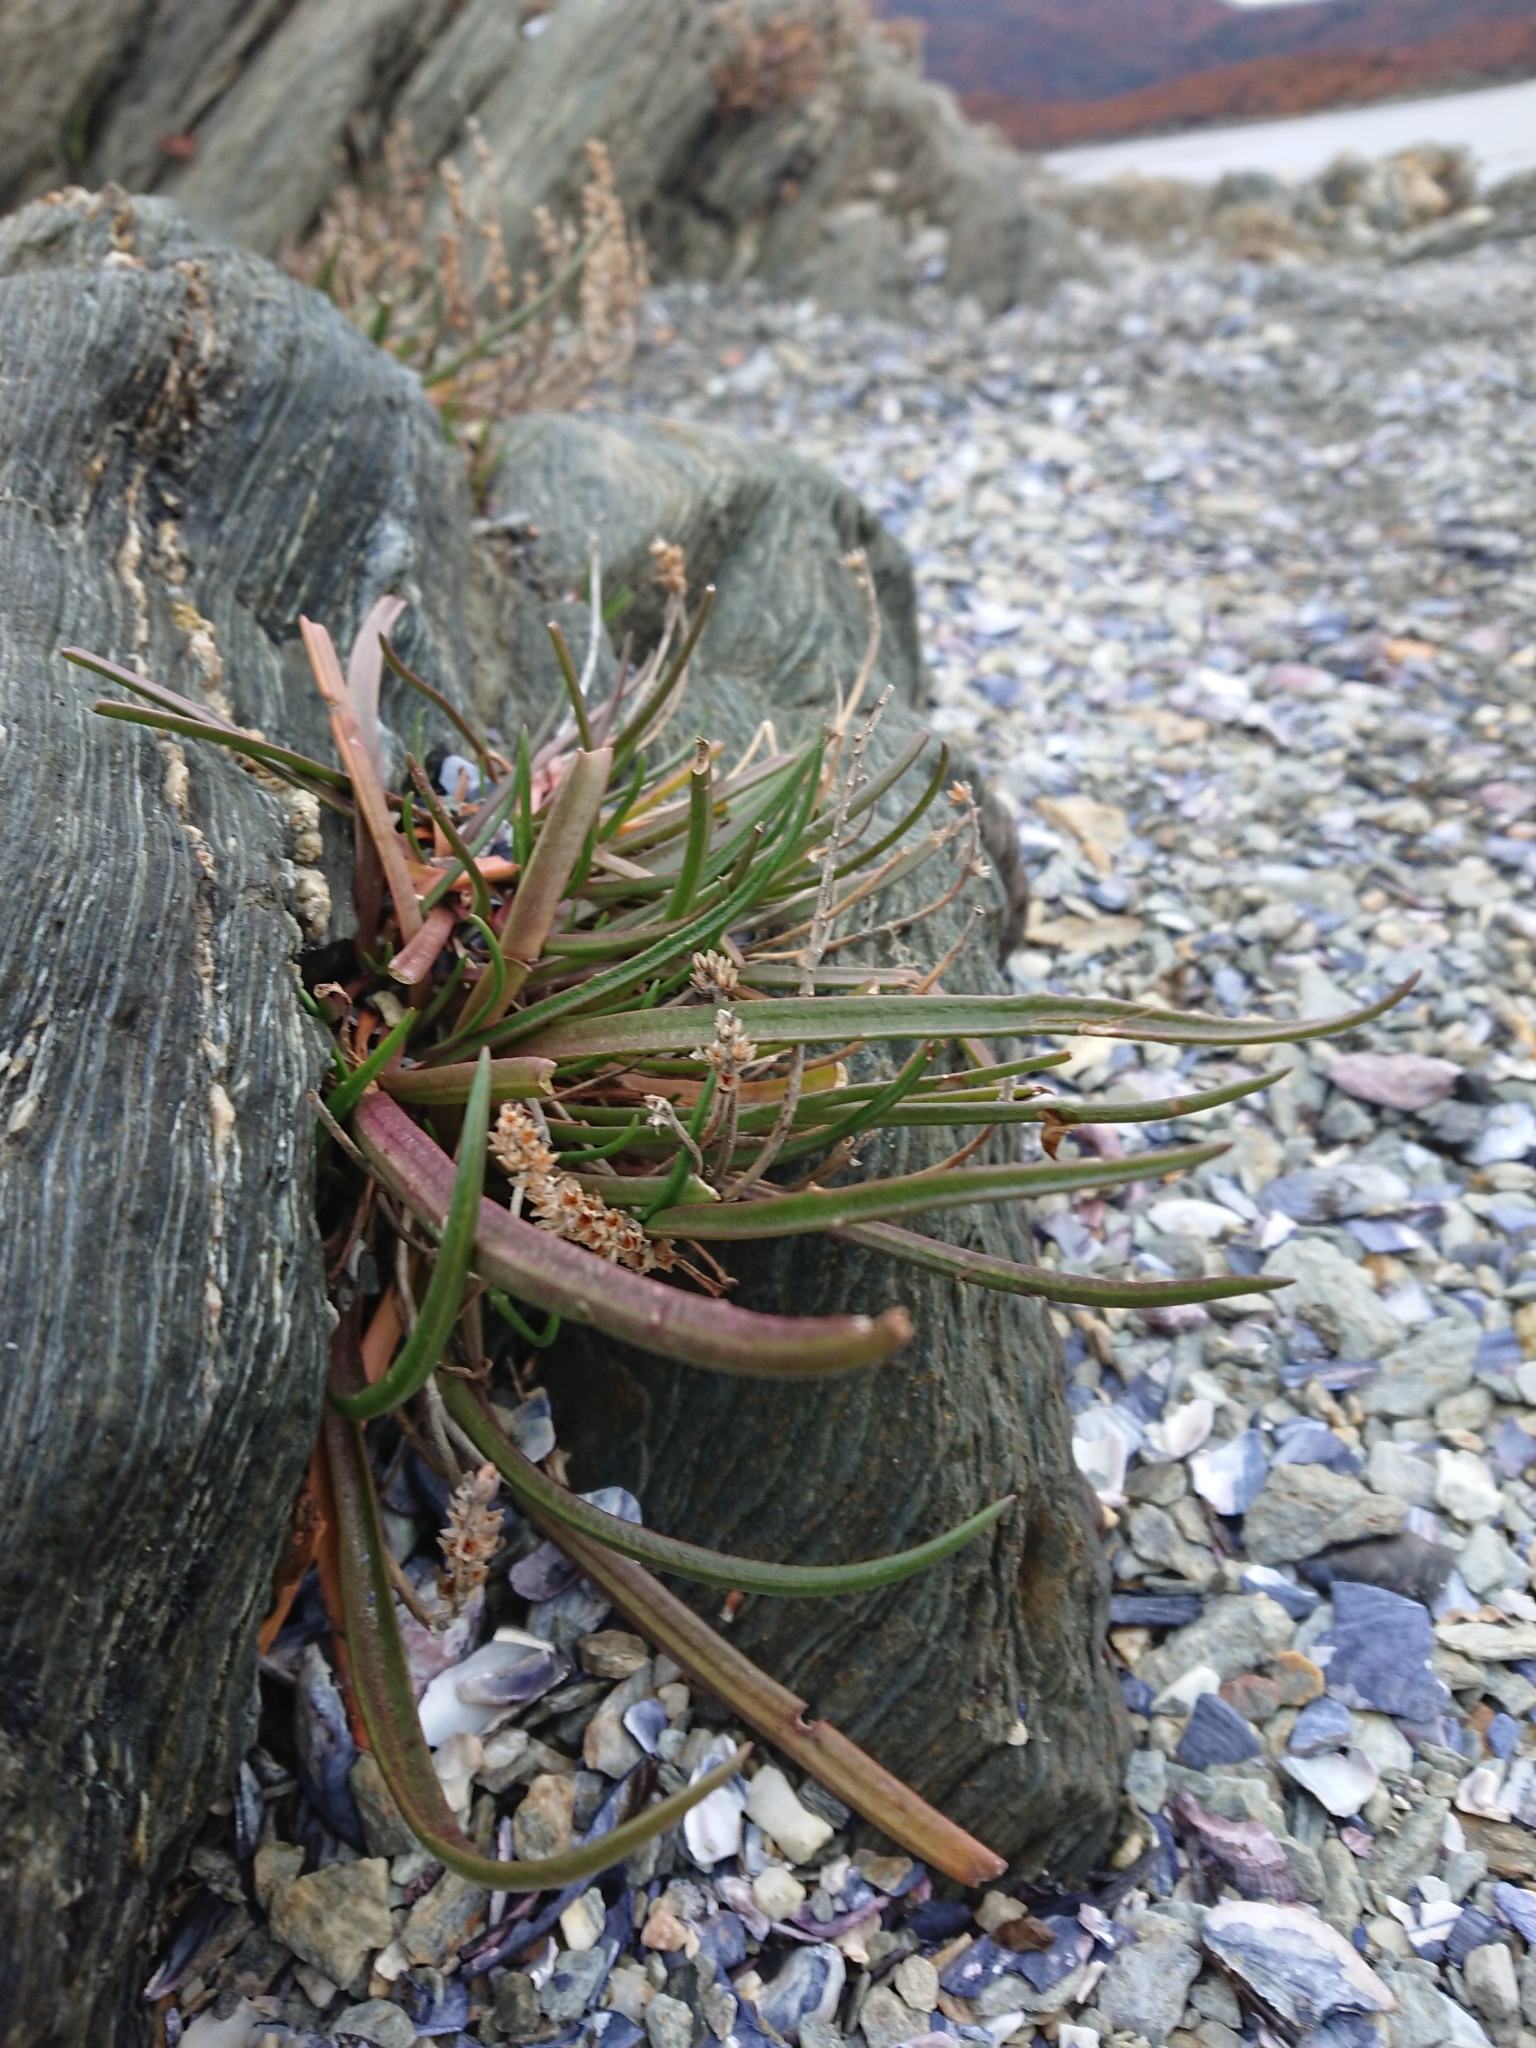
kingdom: Plantae
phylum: Tracheophyta
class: Magnoliopsida
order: Lamiales
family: Plantaginaceae
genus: Plantago
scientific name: Plantago maritima
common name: Sea plantain
